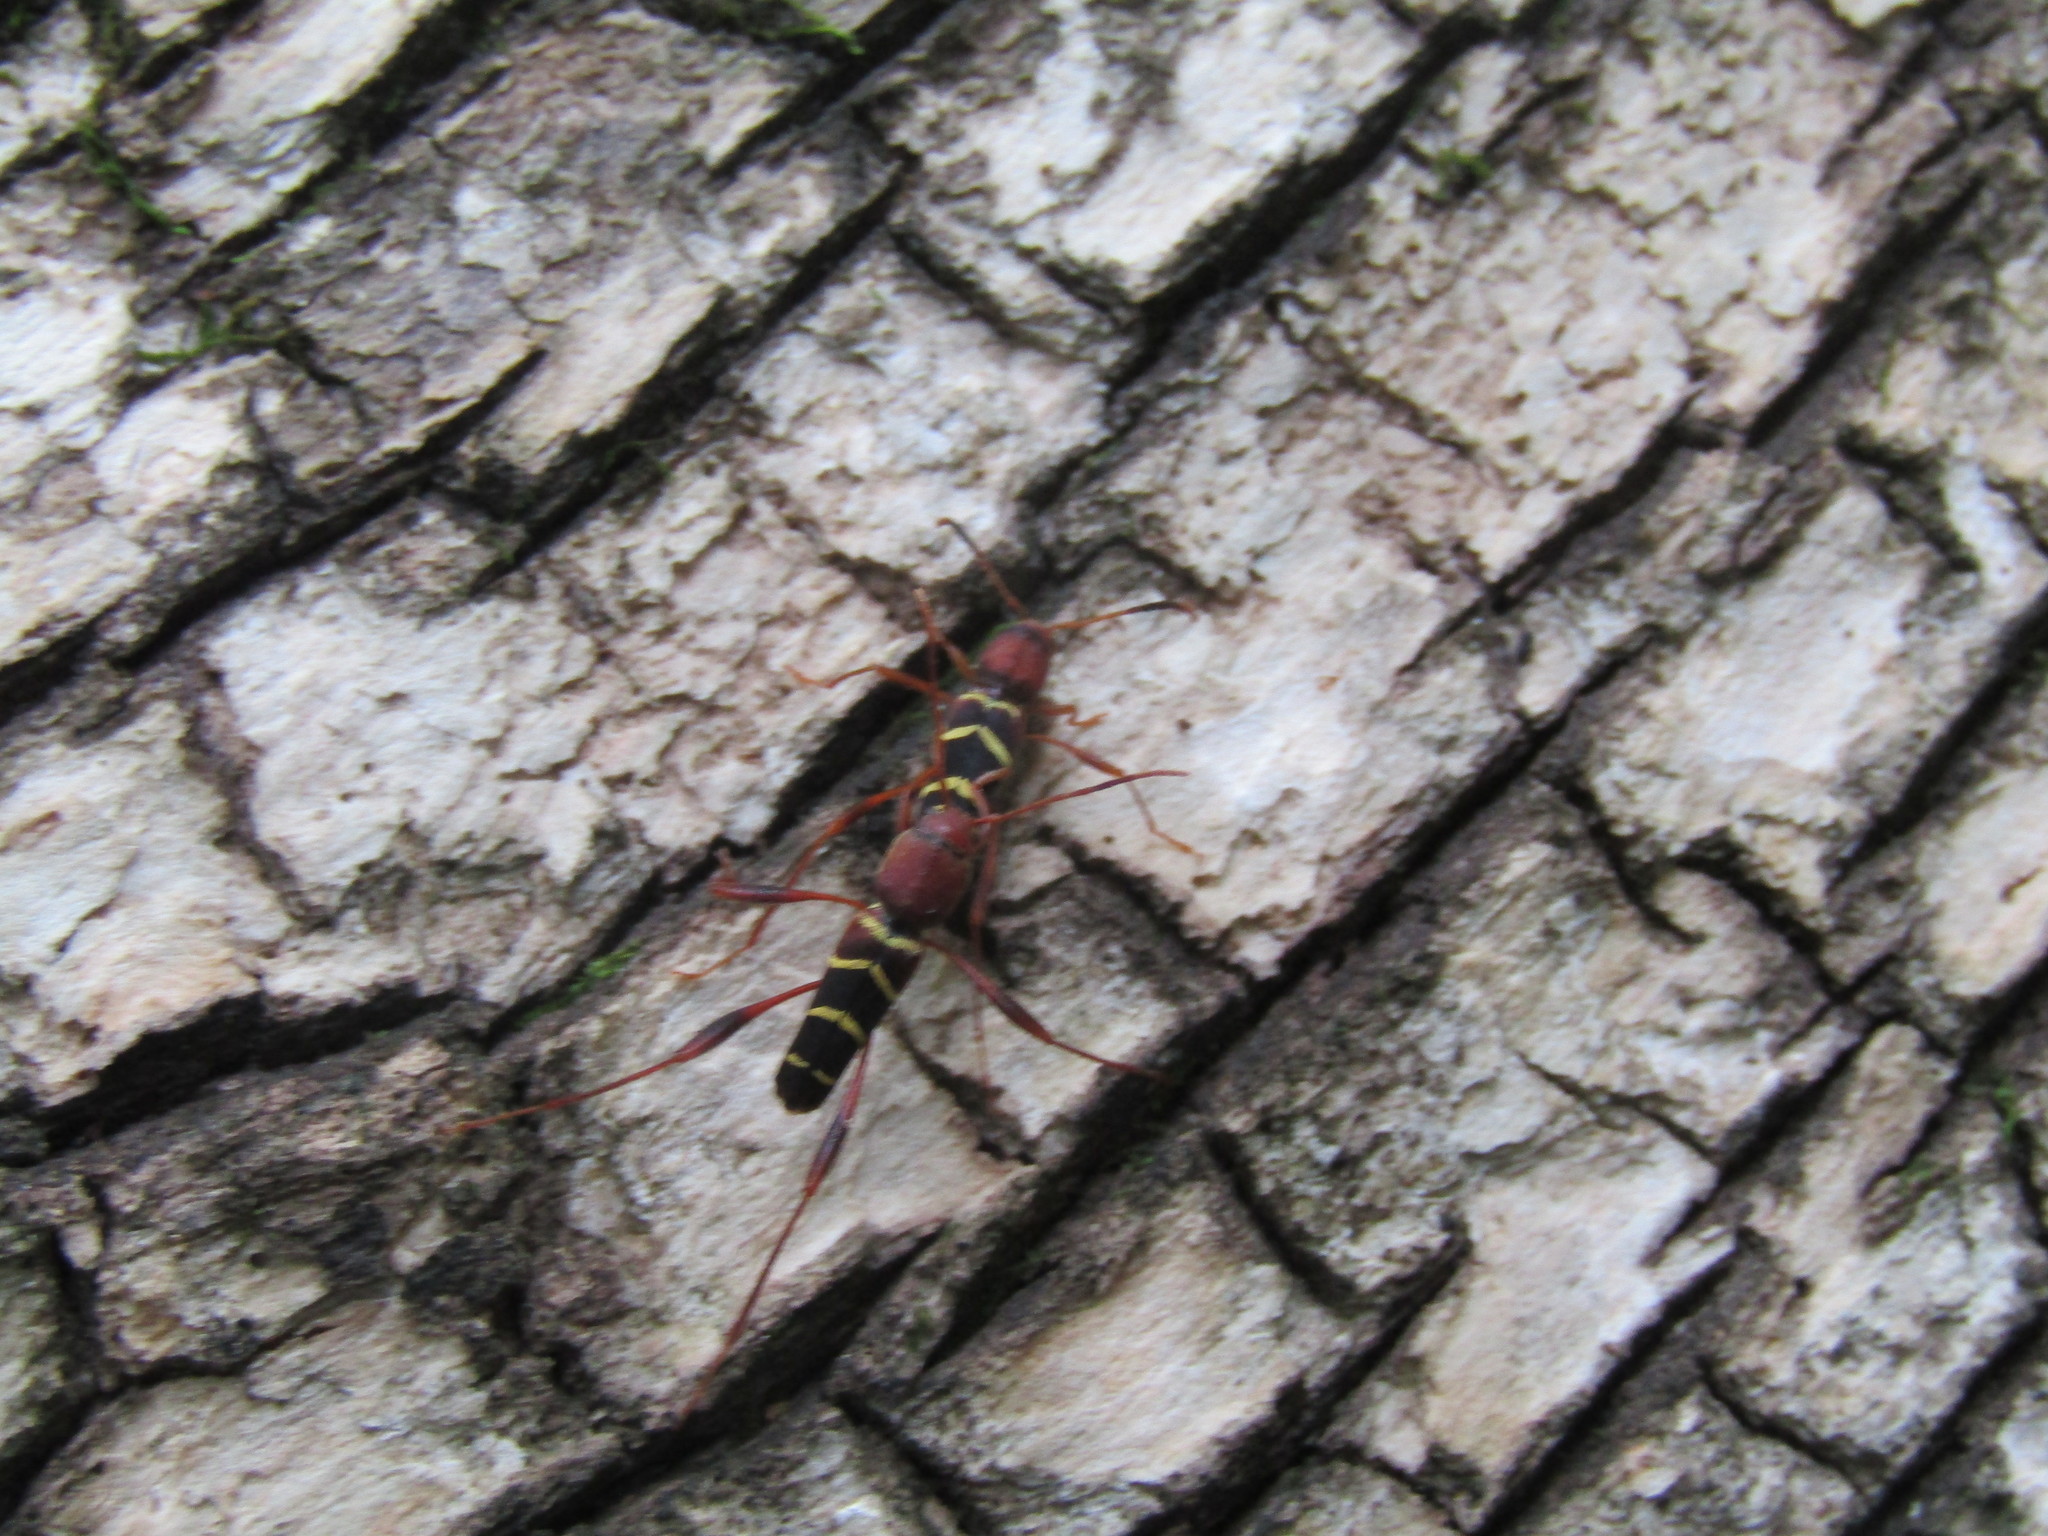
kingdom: Animalia
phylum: Arthropoda
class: Insecta
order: Coleoptera
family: Cerambycidae
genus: Neoclytus
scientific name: Neoclytus acuminatus
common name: Read-headed ash borer
